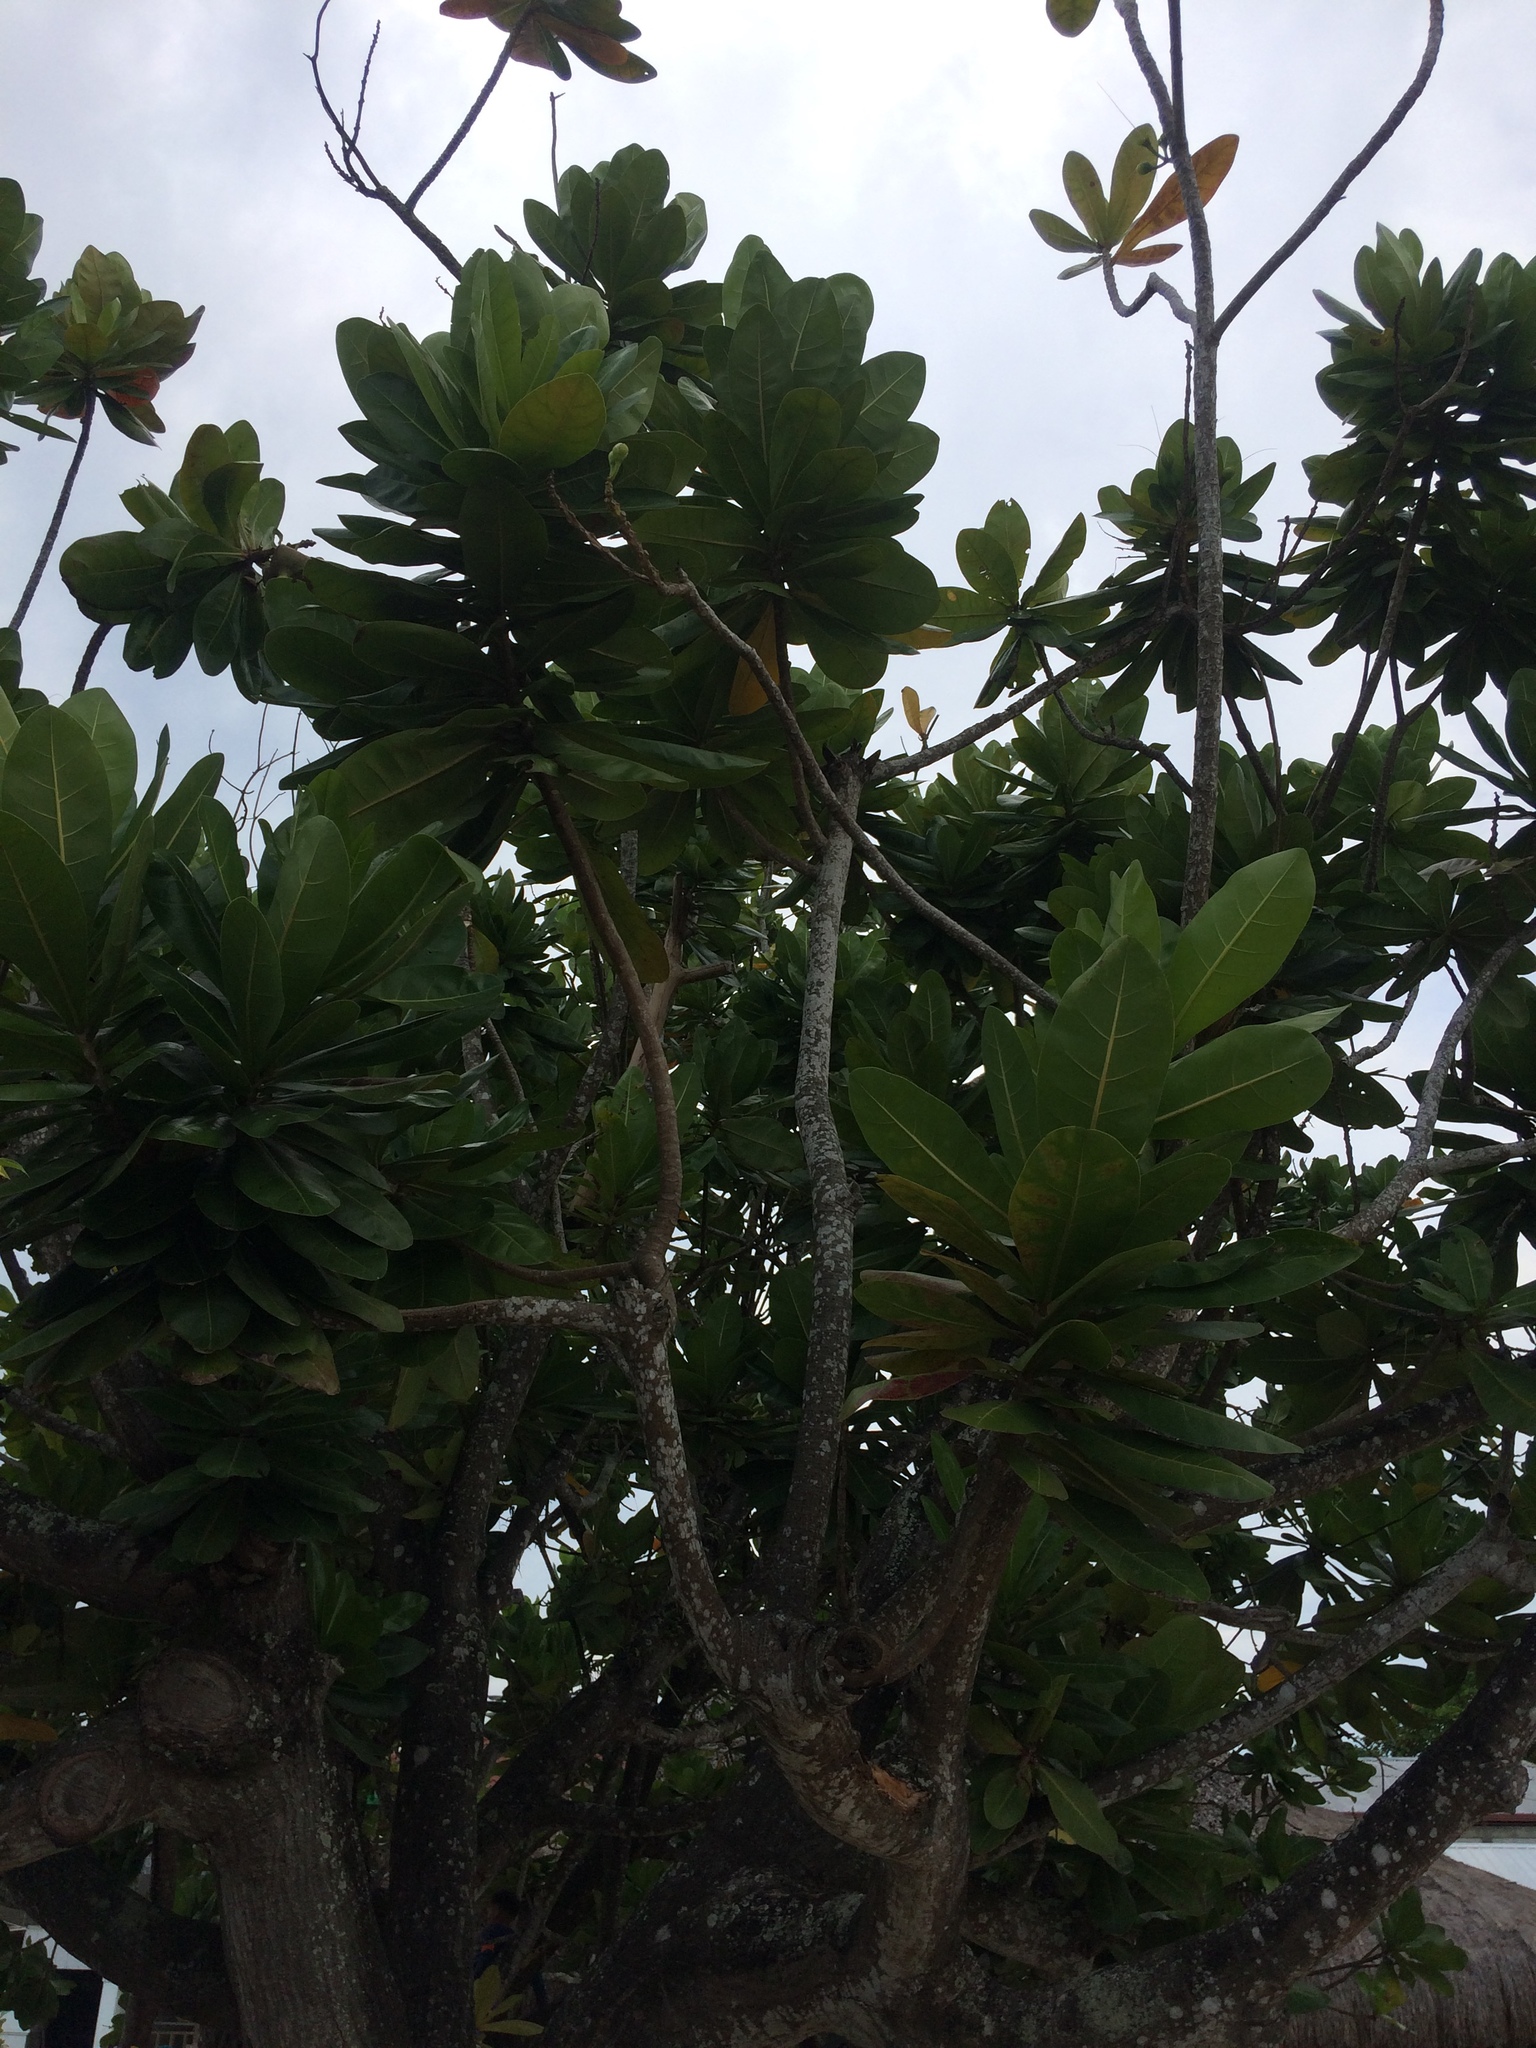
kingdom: Plantae
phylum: Tracheophyta
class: Magnoliopsida
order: Ericales
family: Lecythidaceae
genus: Barringtonia
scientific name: Barringtonia asiatica
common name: Mango-pine
